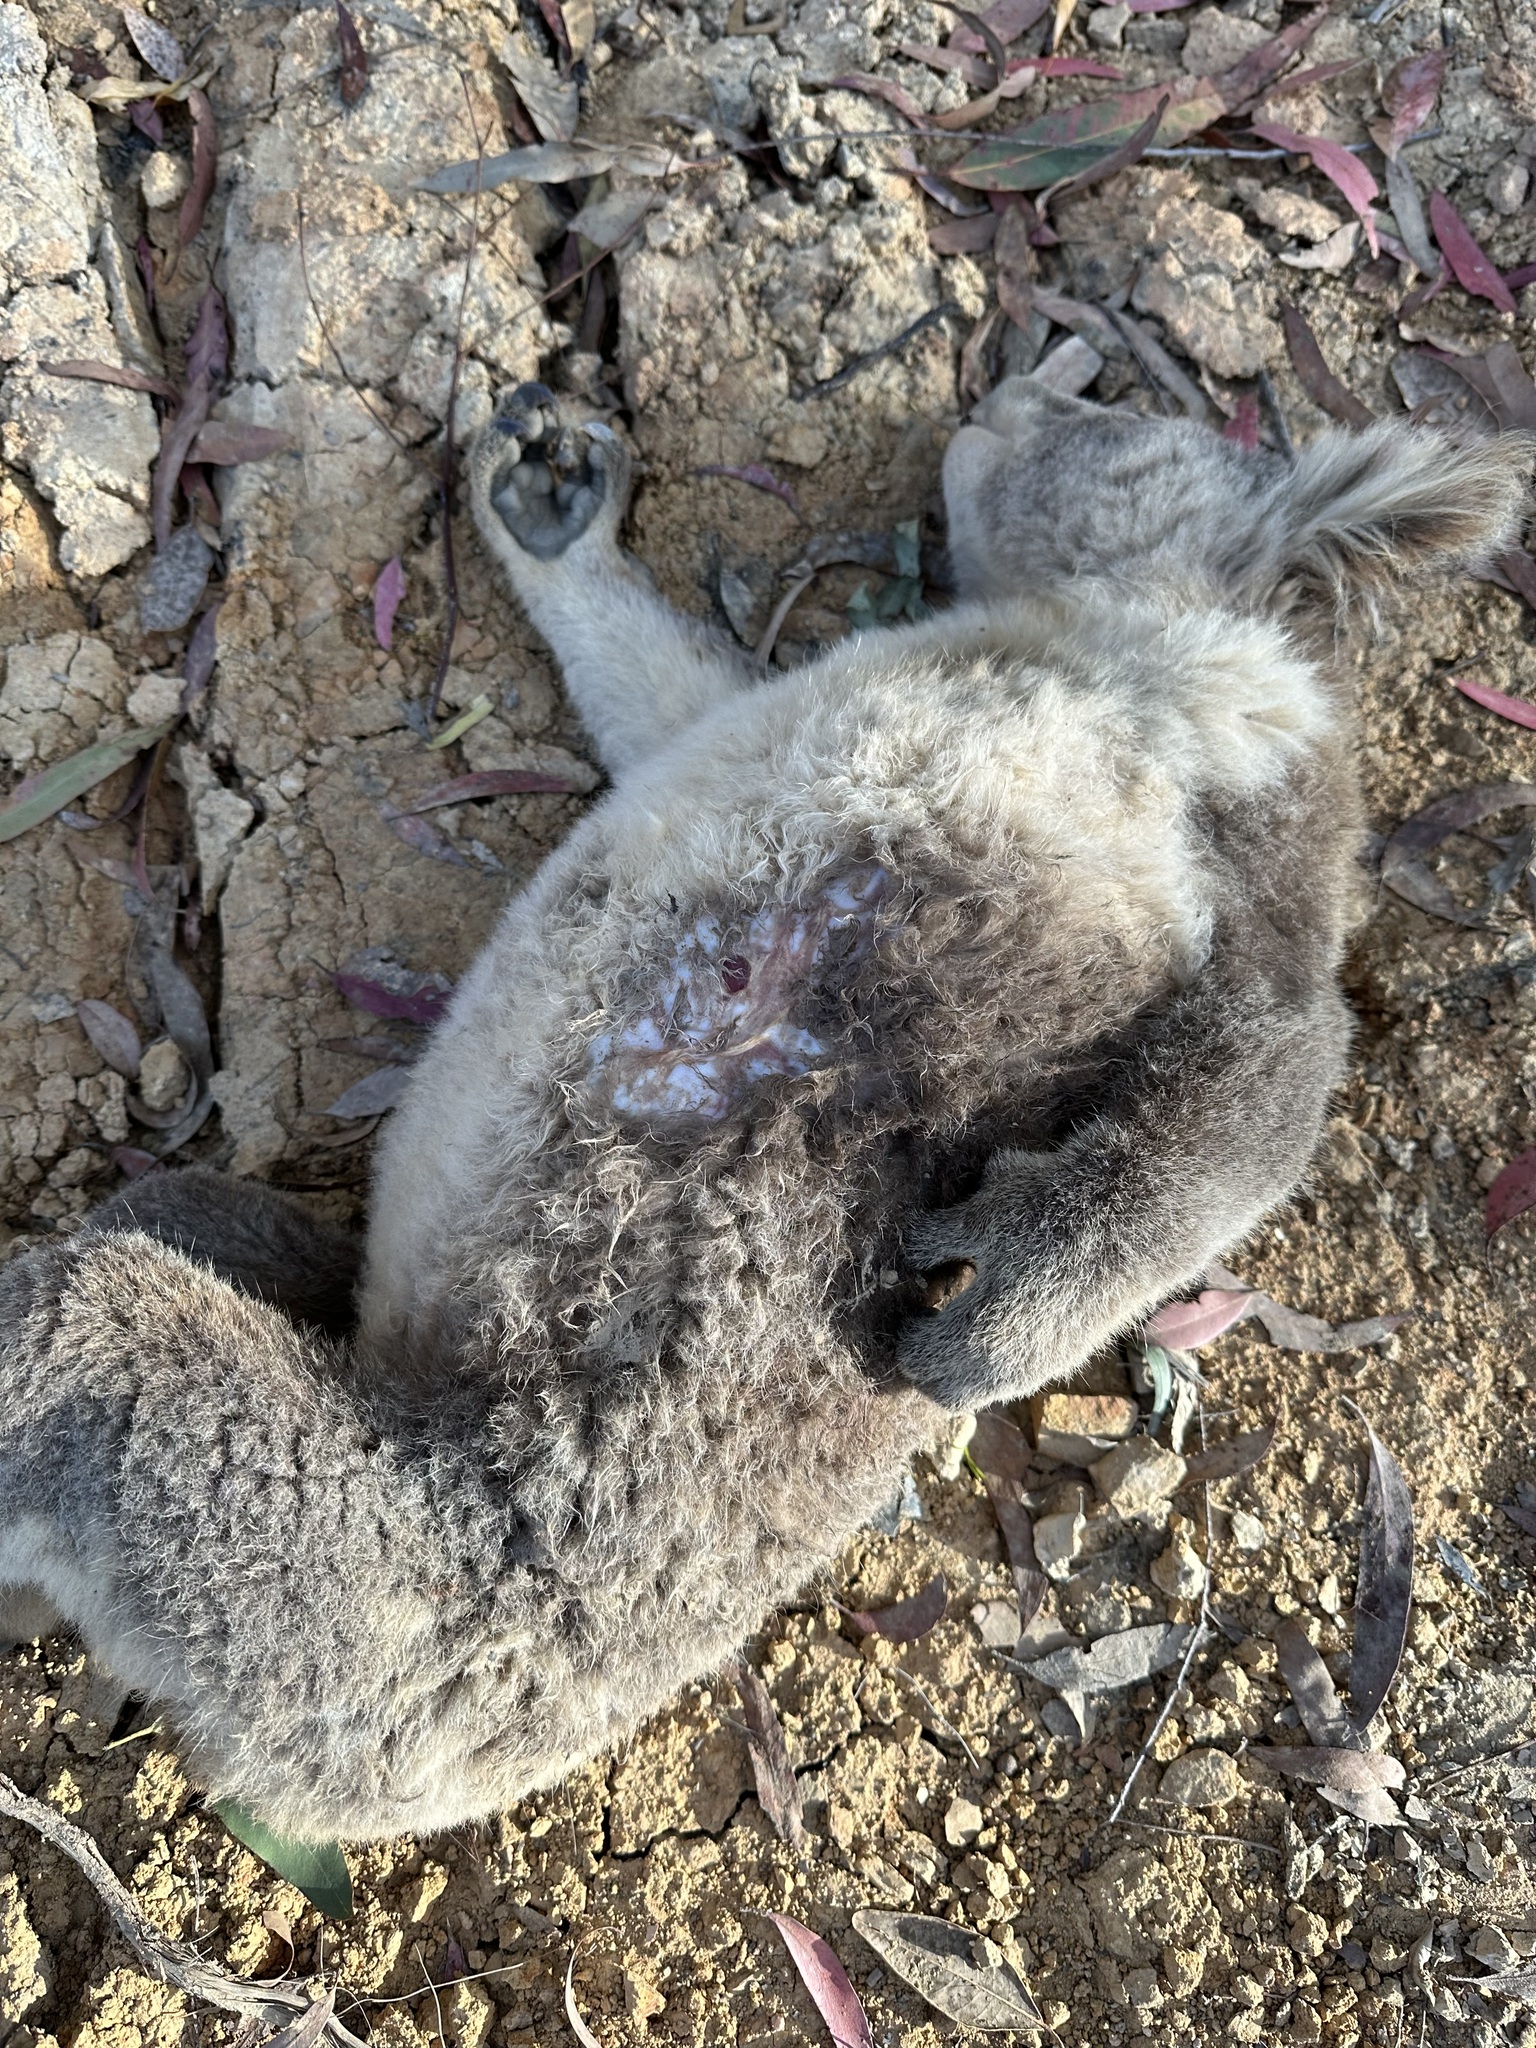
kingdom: Animalia
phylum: Chordata
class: Mammalia
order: Diprotodontia
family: Phascolarctidae
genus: Phascolarctos
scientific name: Phascolarctos cinereus
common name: Koala
